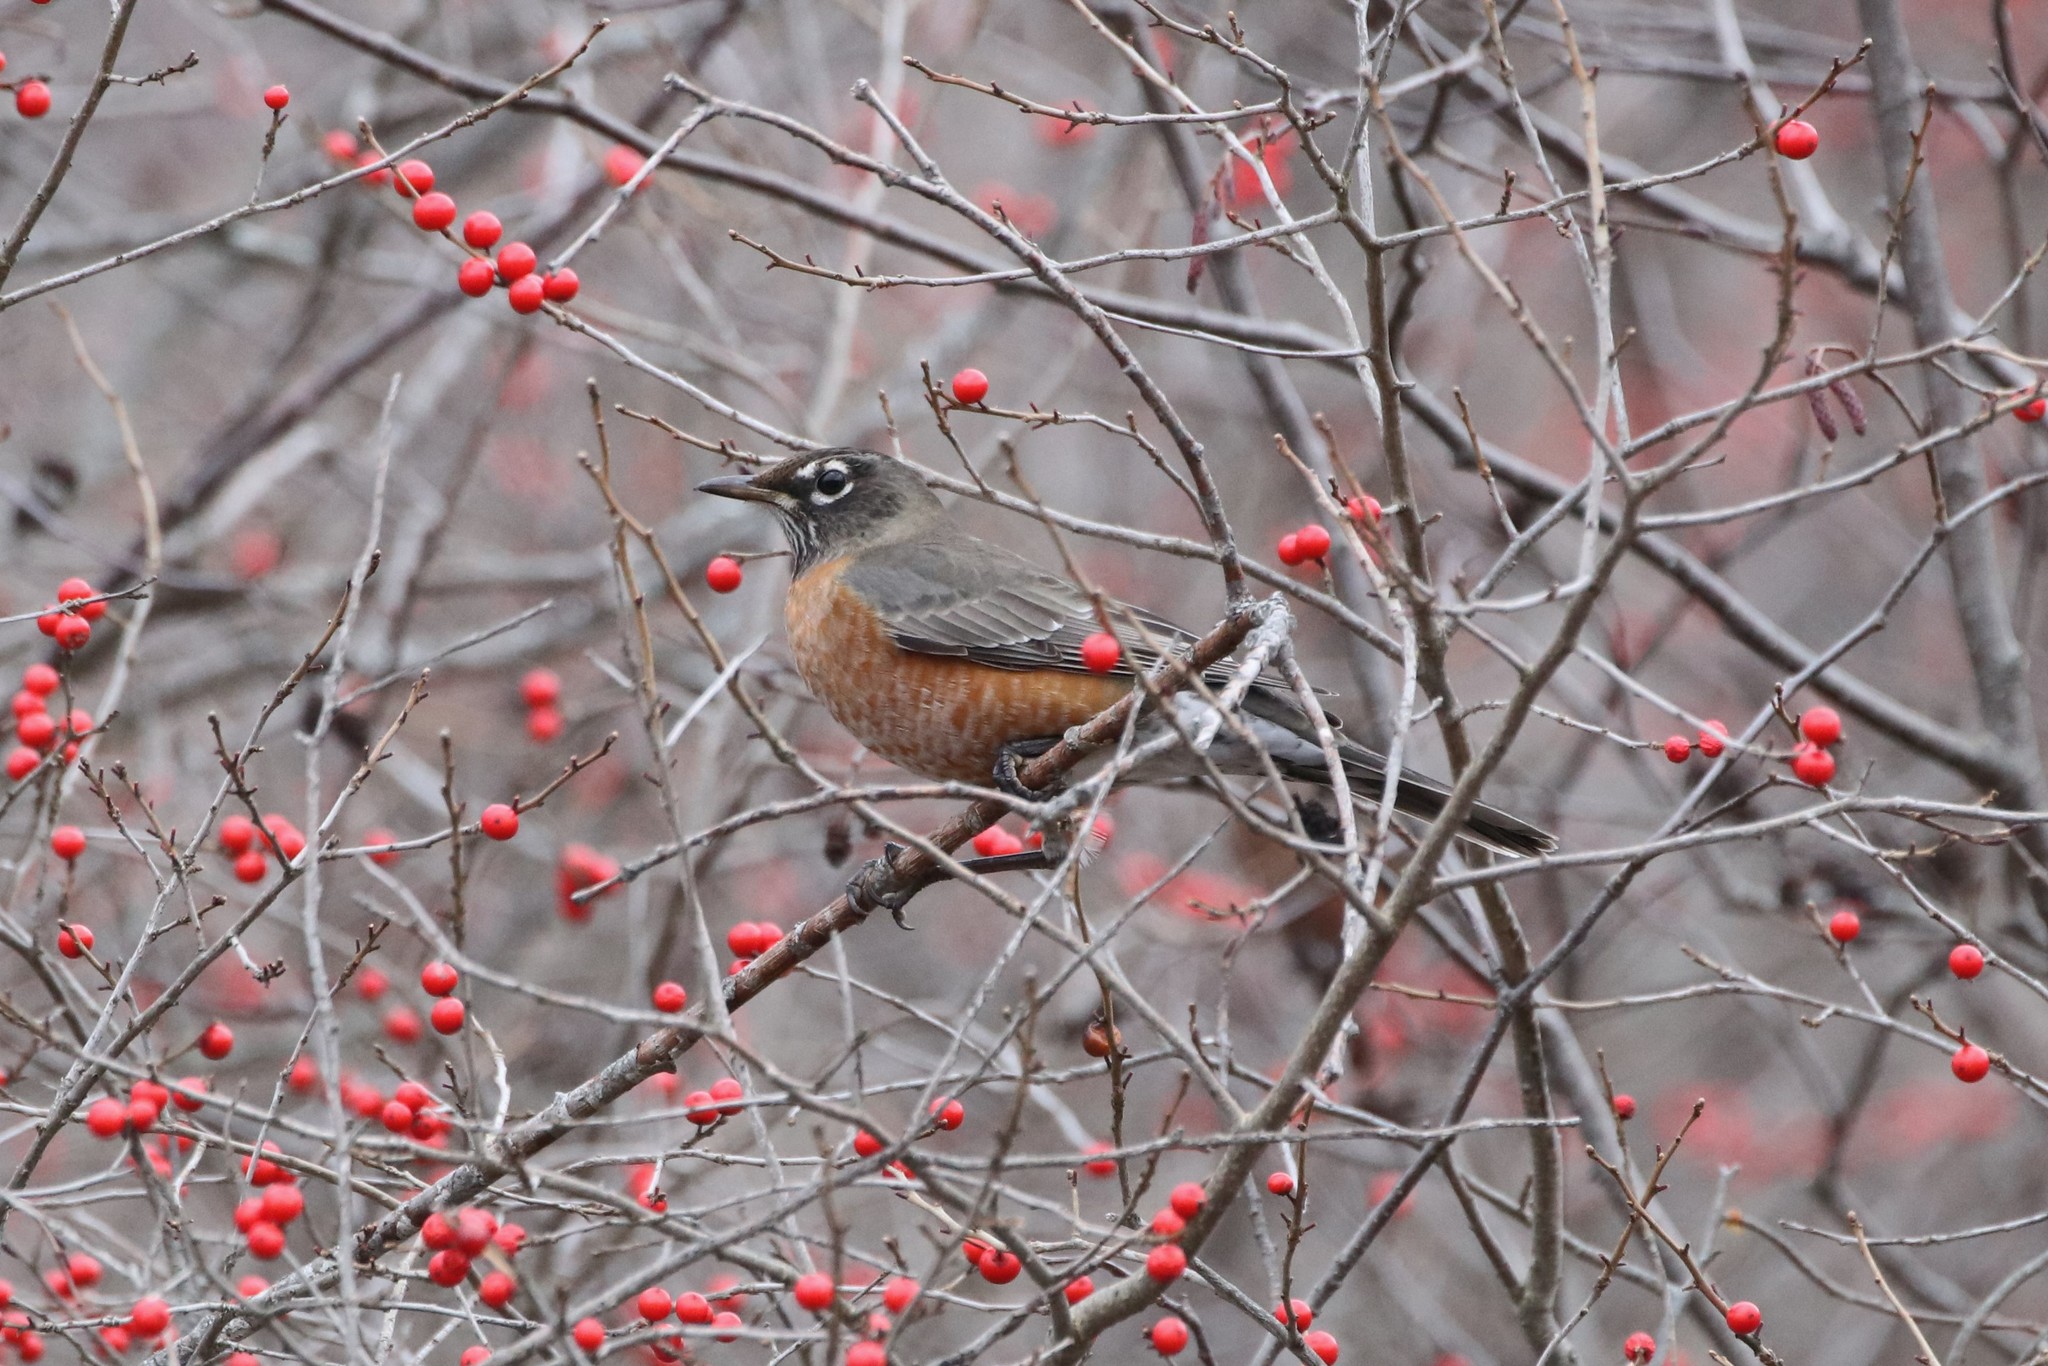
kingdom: Animalia
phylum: Chordata
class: Aves
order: Passeriformes
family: Turdidae
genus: Turdus
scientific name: Turdus migratorius
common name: American robin
